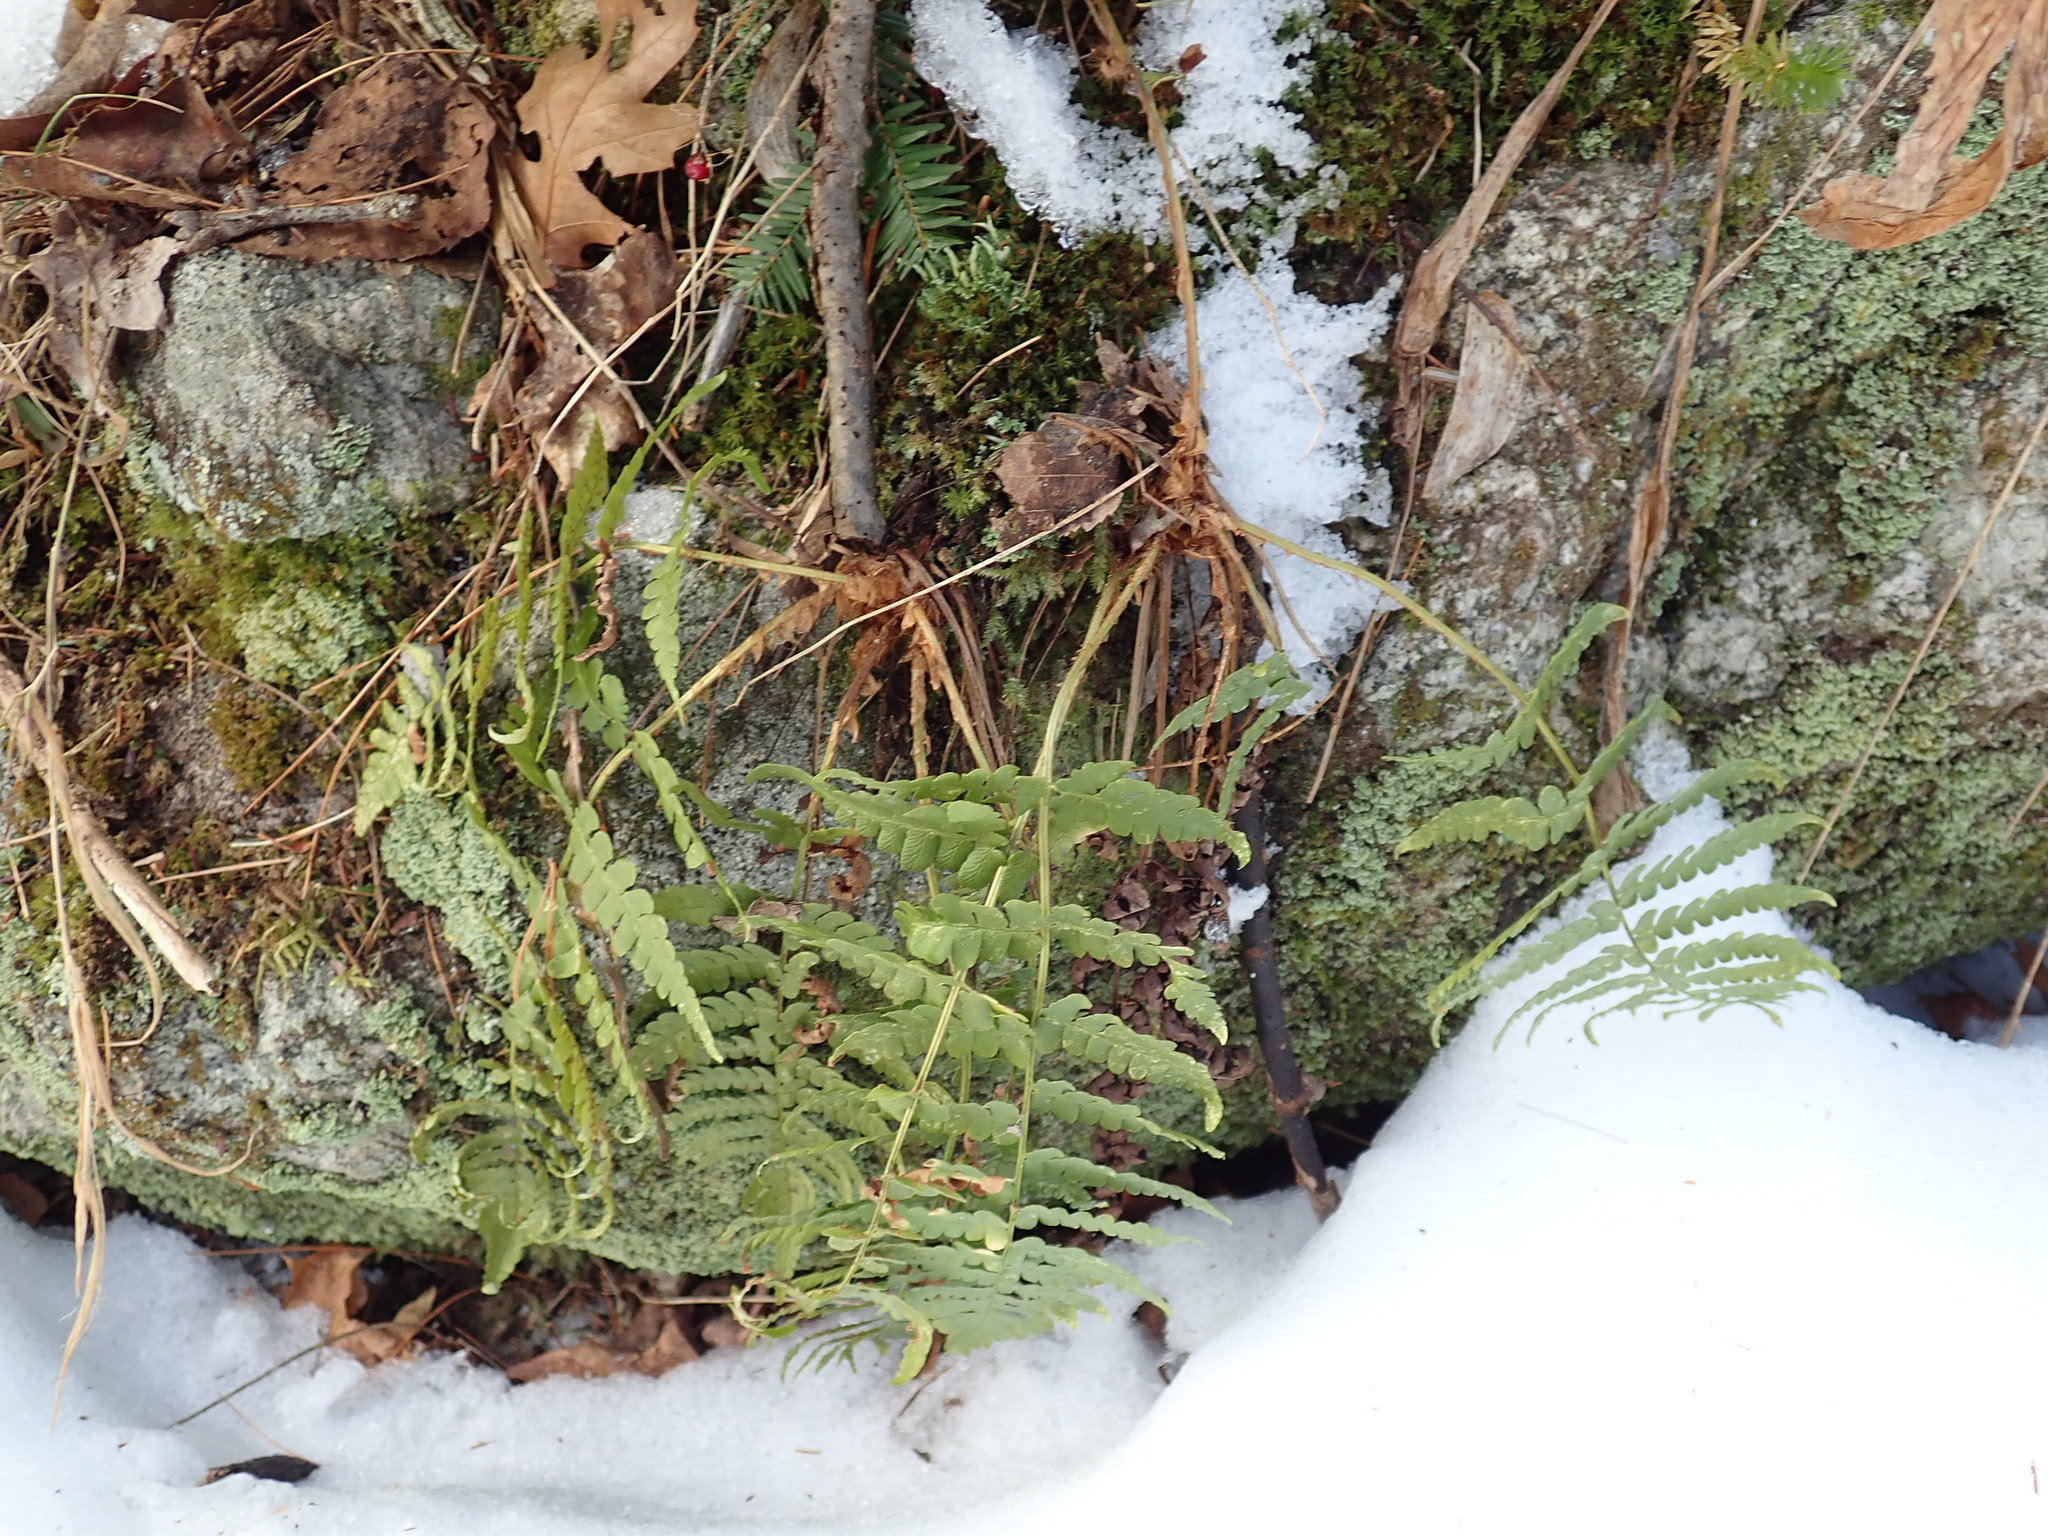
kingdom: Plantae
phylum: Tracheophyta
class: Polypodiopsida
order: Polypodiales
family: Dryopteridaceae
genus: Dryopteris
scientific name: Dryopteris marginalis
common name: Marginal wood fern
